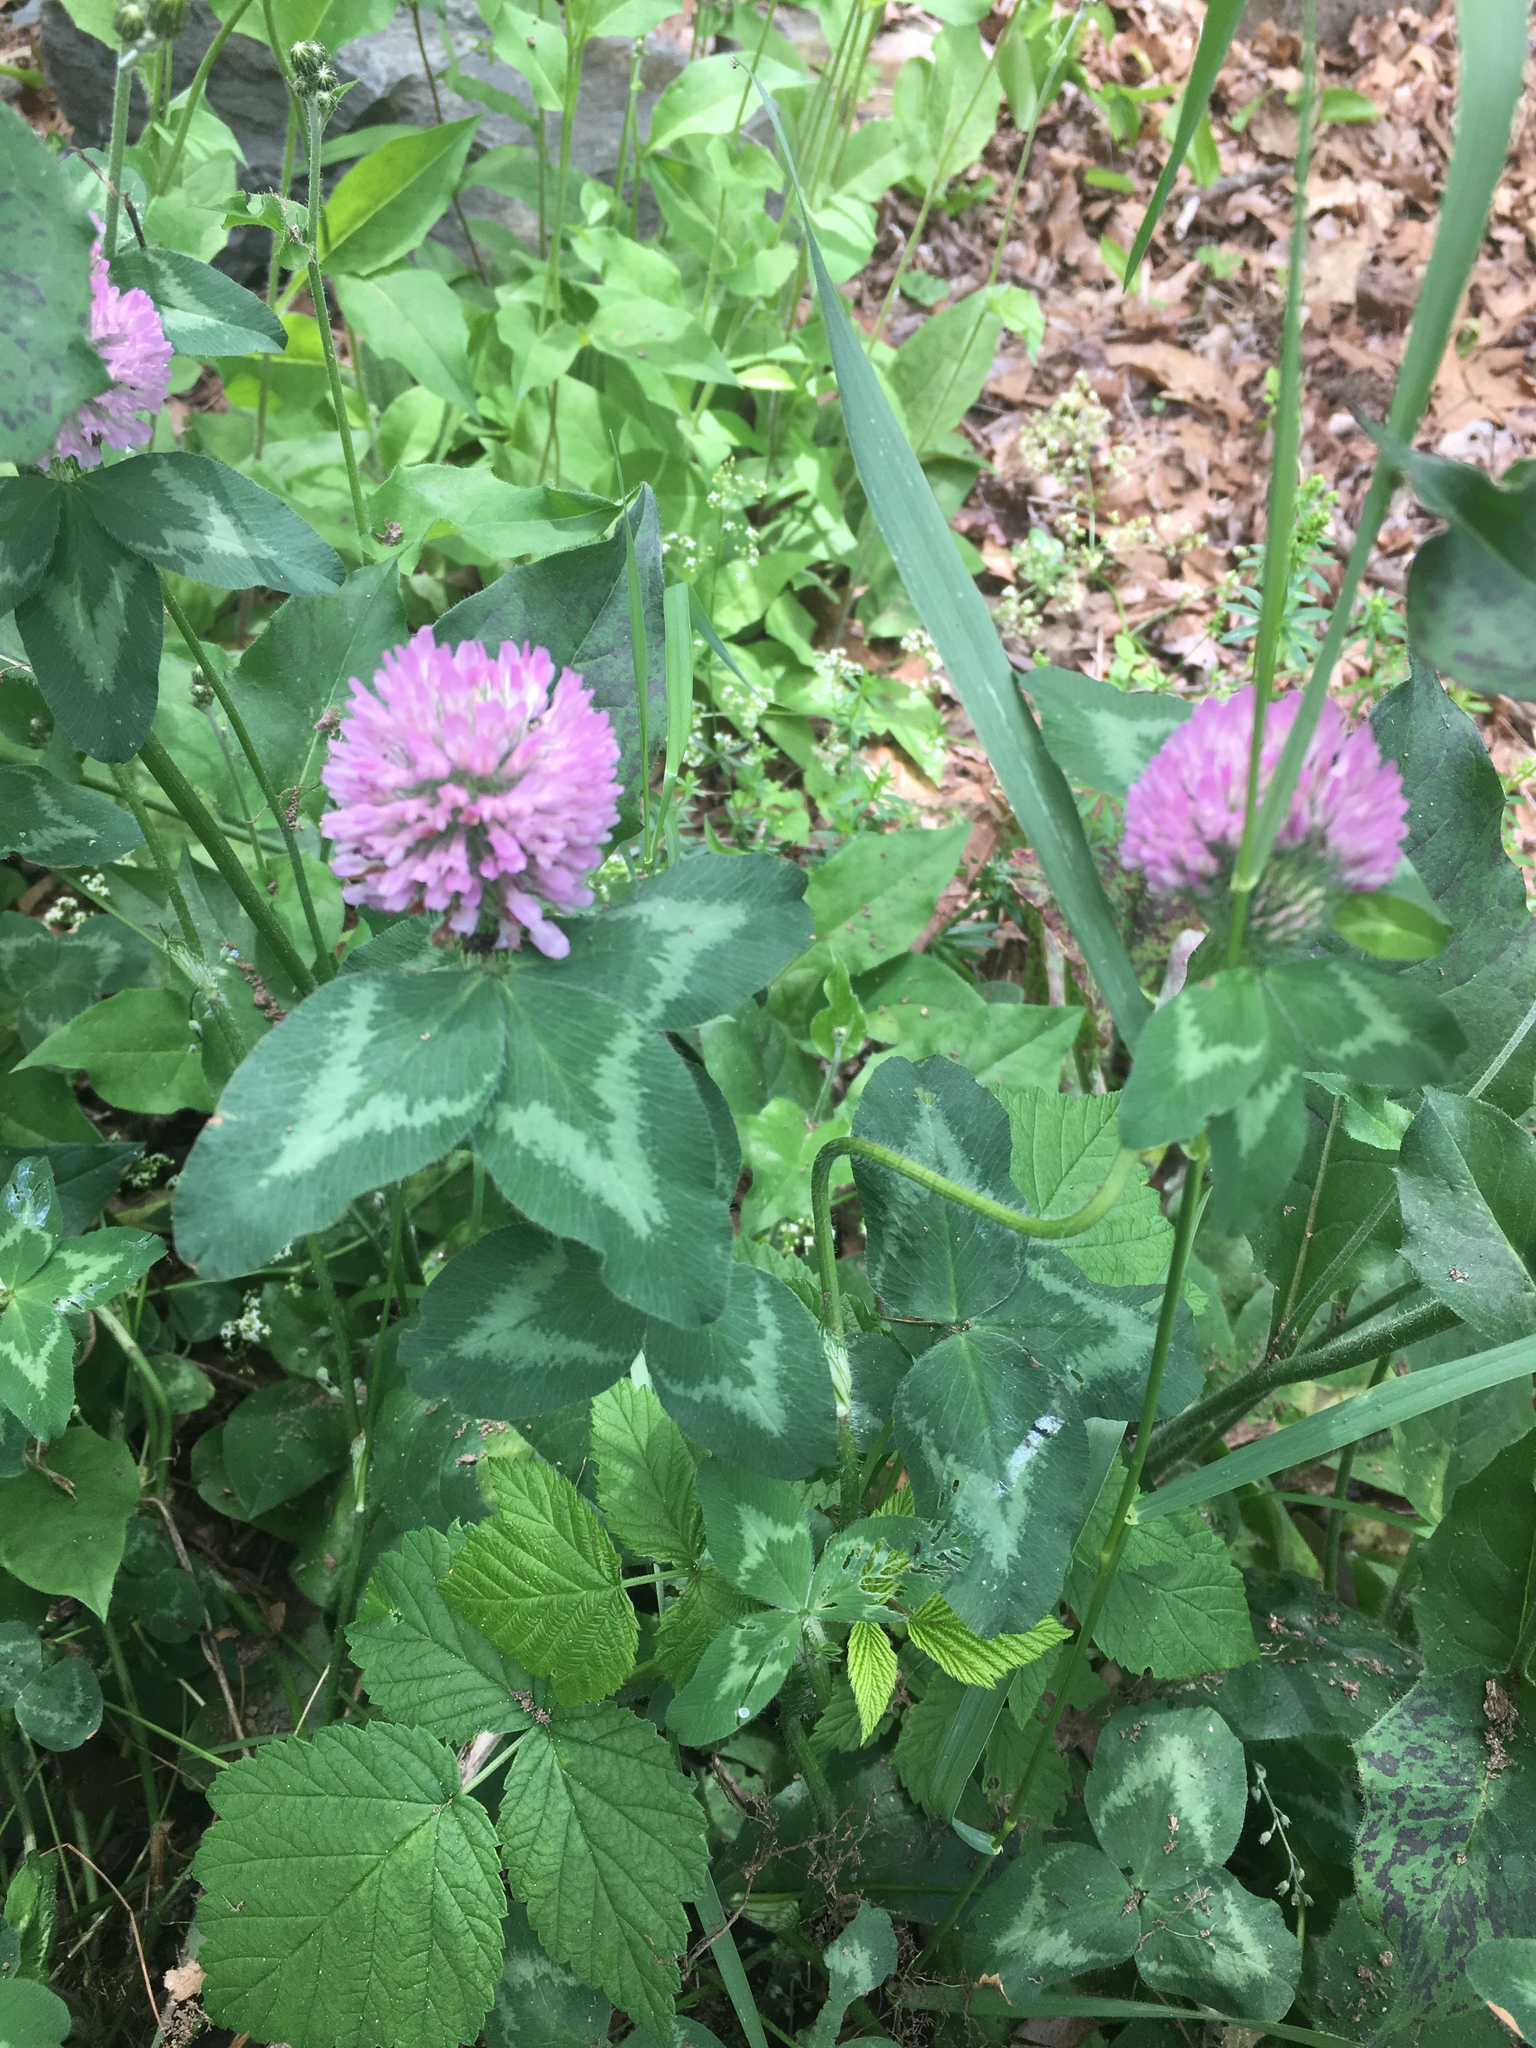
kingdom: Plantae
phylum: Tracheophyta
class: Magnoliopsida
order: Fabales
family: Fabaceae
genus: Trifolium
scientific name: Trifolium pratense
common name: Red clover
